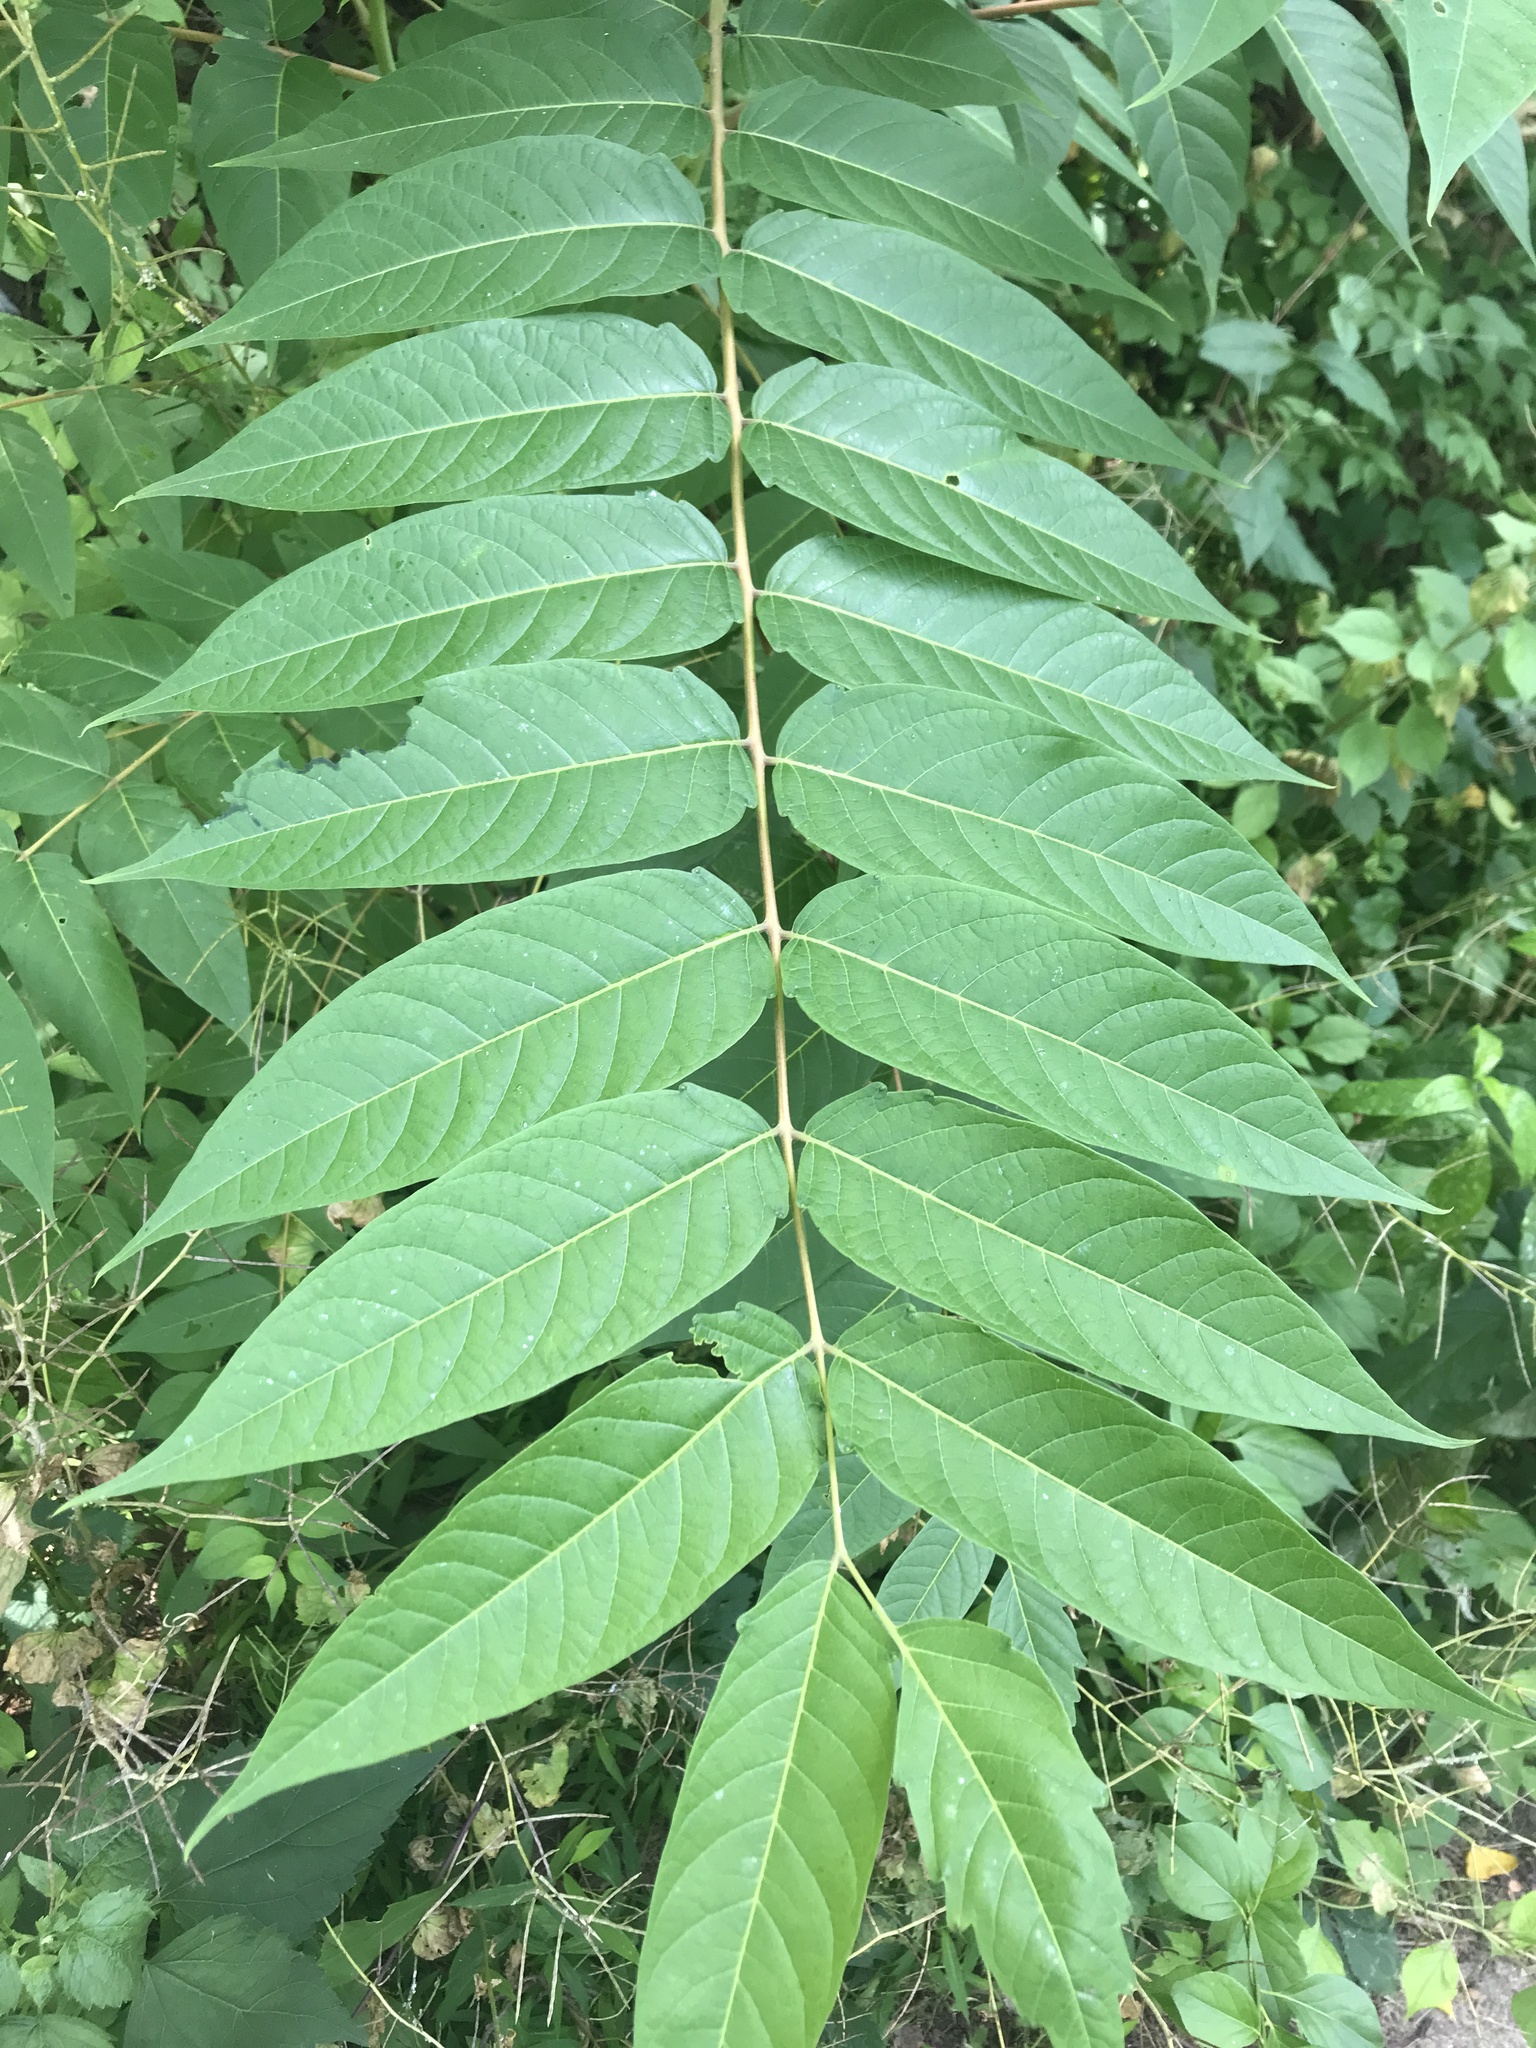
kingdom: Plantae
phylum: Tracheophyta
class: Magnoliopsida
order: Sapindales
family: Simaroubaceae
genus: Ailanthus
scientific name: Ailanthus altissima
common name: Tree-of-heaven
